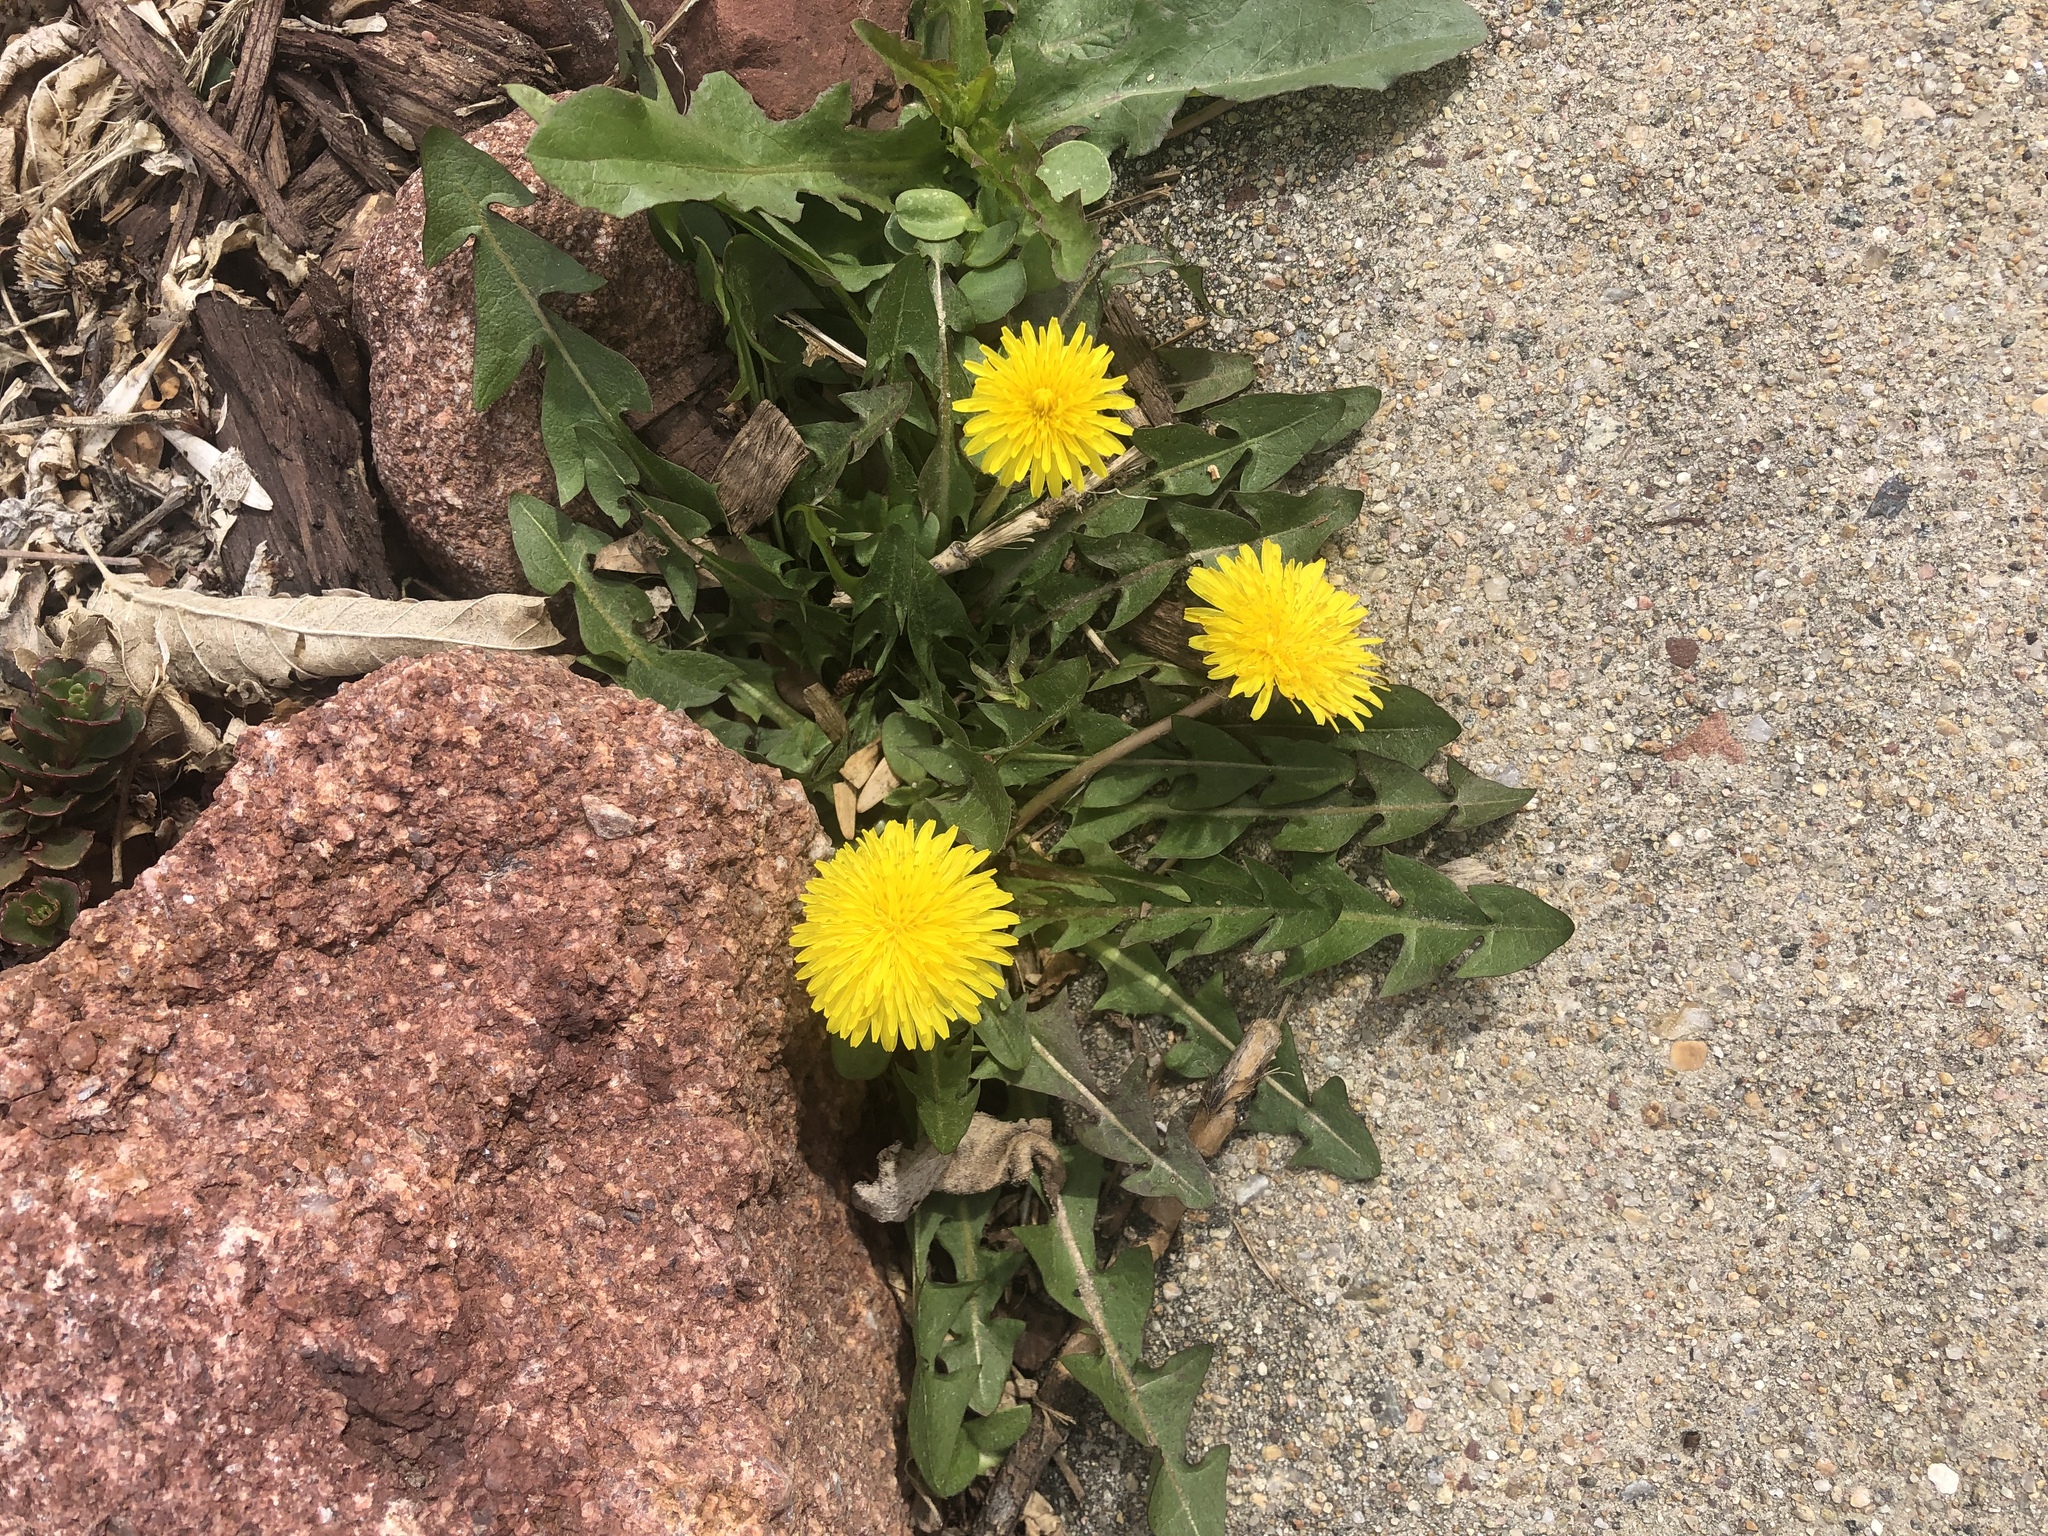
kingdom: Plantae
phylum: Tracheophyta
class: Magnoliopsida
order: Asterales
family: Asteraceae
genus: Taraxacum
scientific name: Taraxacum officinale
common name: Common dandelion
